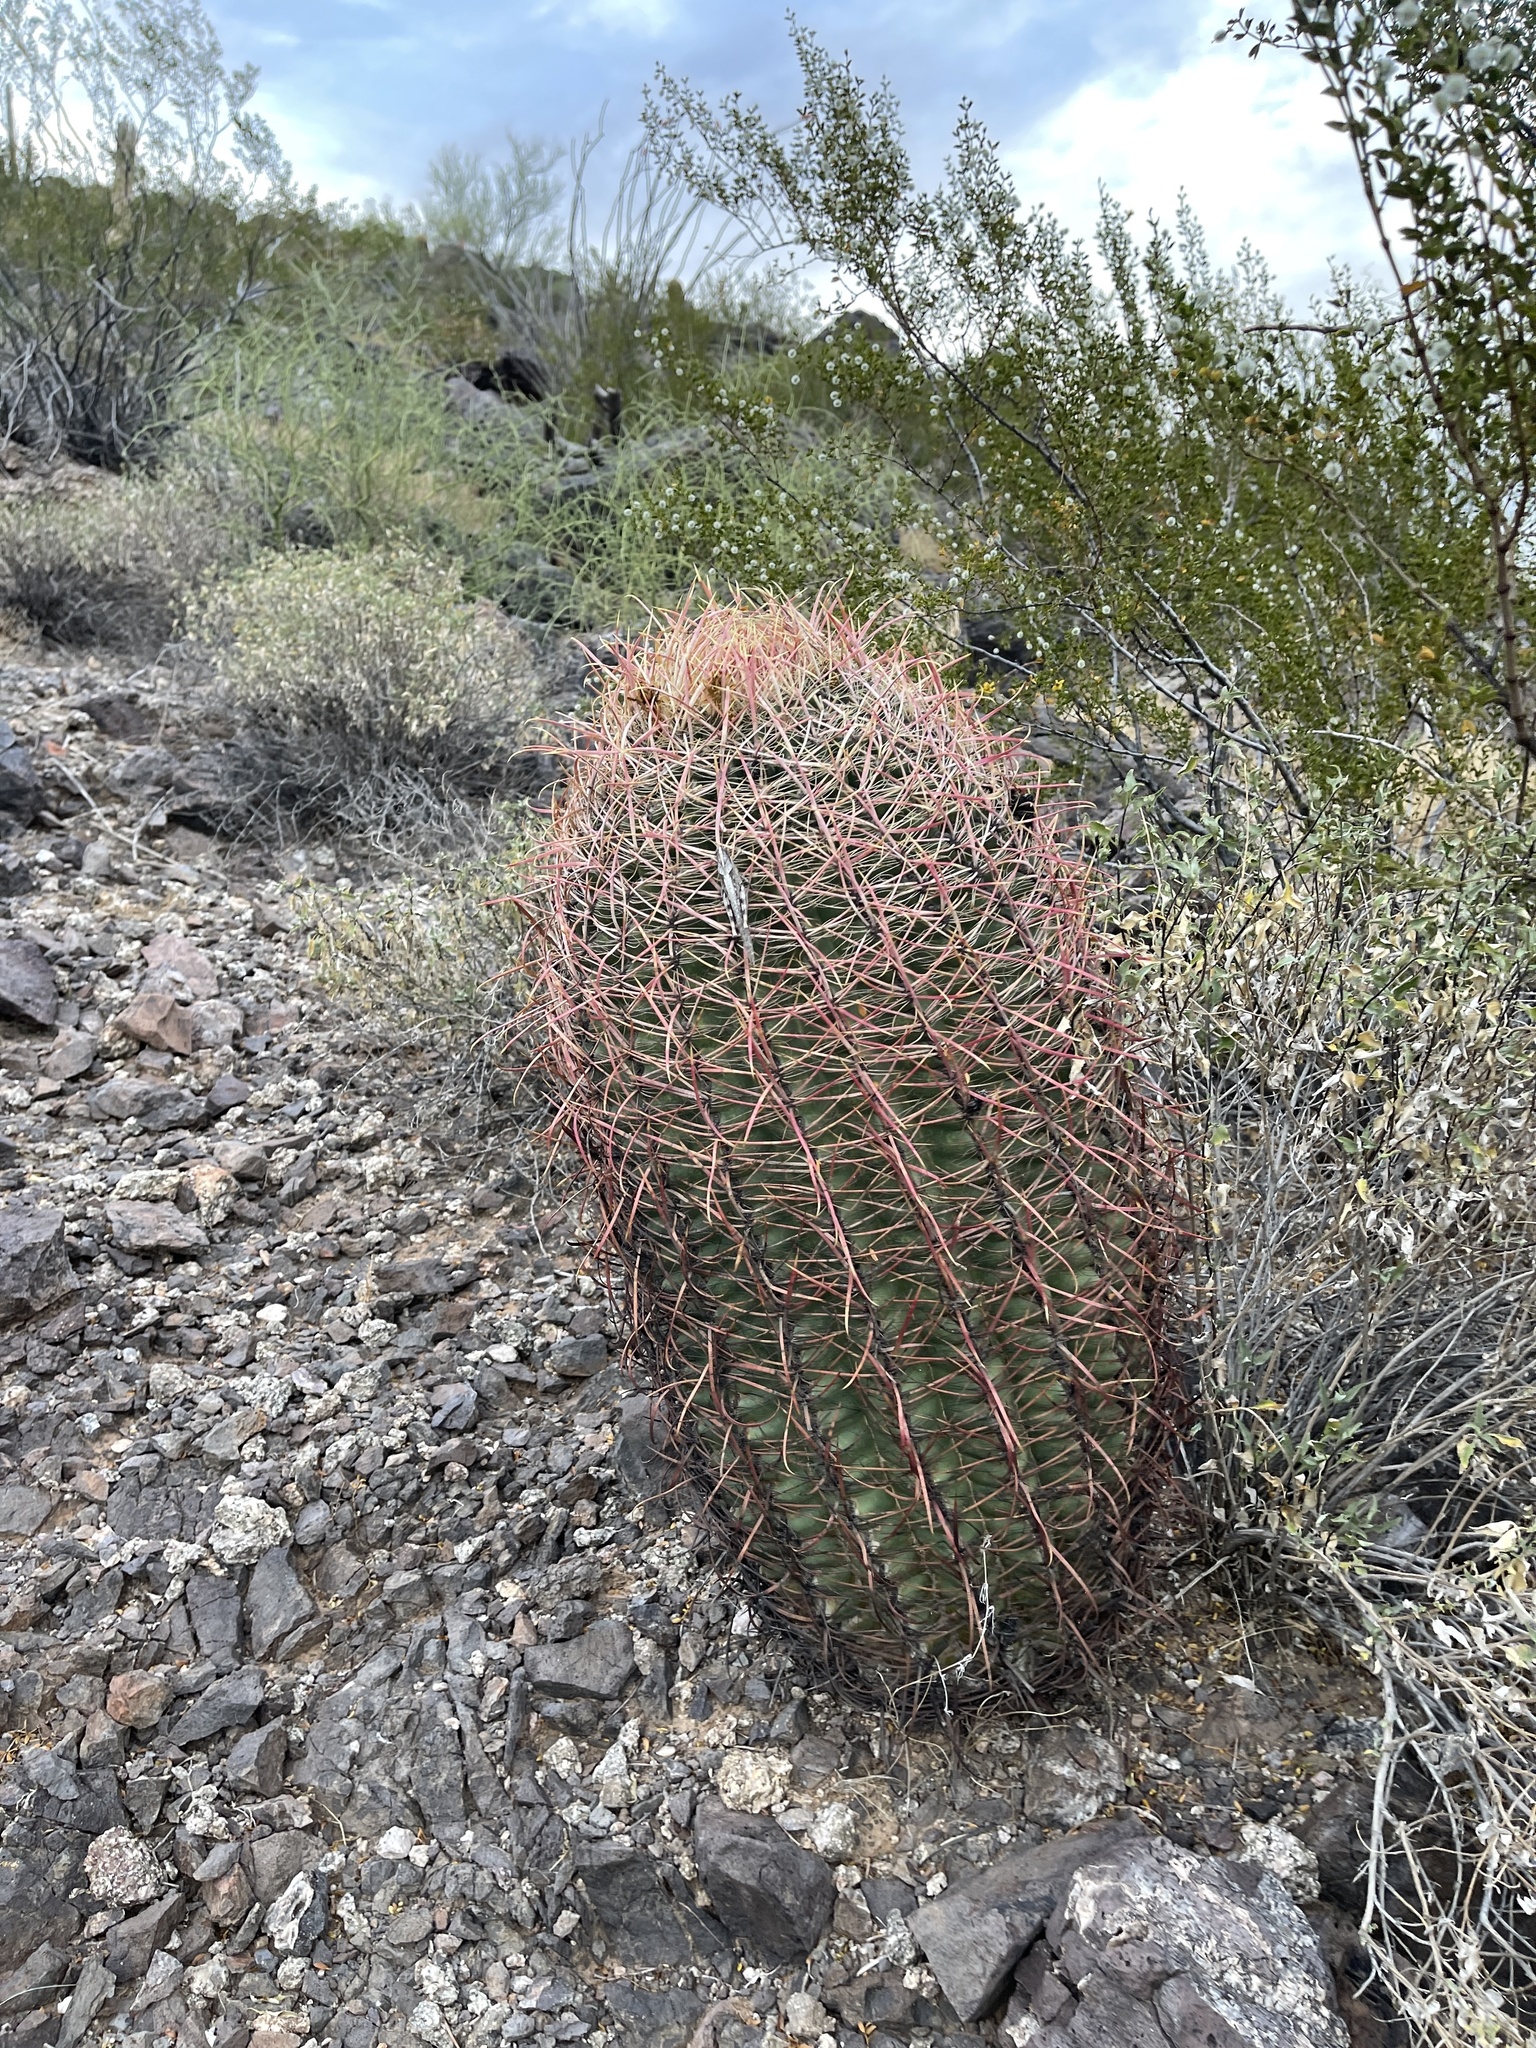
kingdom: Plantae
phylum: Tracheophyta
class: Magnoliopsida
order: Caryophyllales
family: Cactaceae
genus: Ferocactus
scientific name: Ferocactus cylindraceus
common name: California barrel cactus
